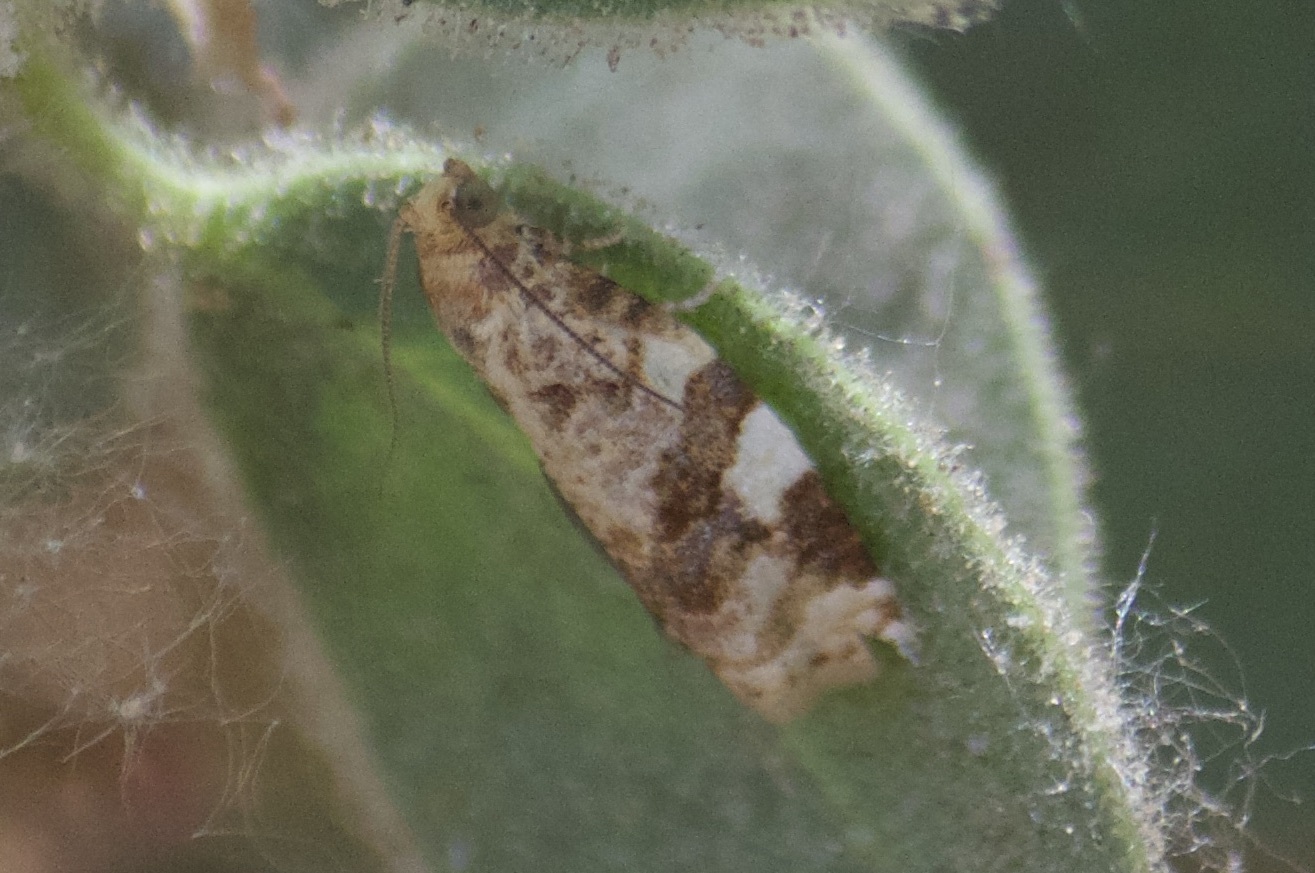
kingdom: Animalia
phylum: Arthropoda
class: Insecta
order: Lepidoptera
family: Tortricidae
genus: Archips
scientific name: Archips argyrospila
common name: Fruit-tree leafroller moth
